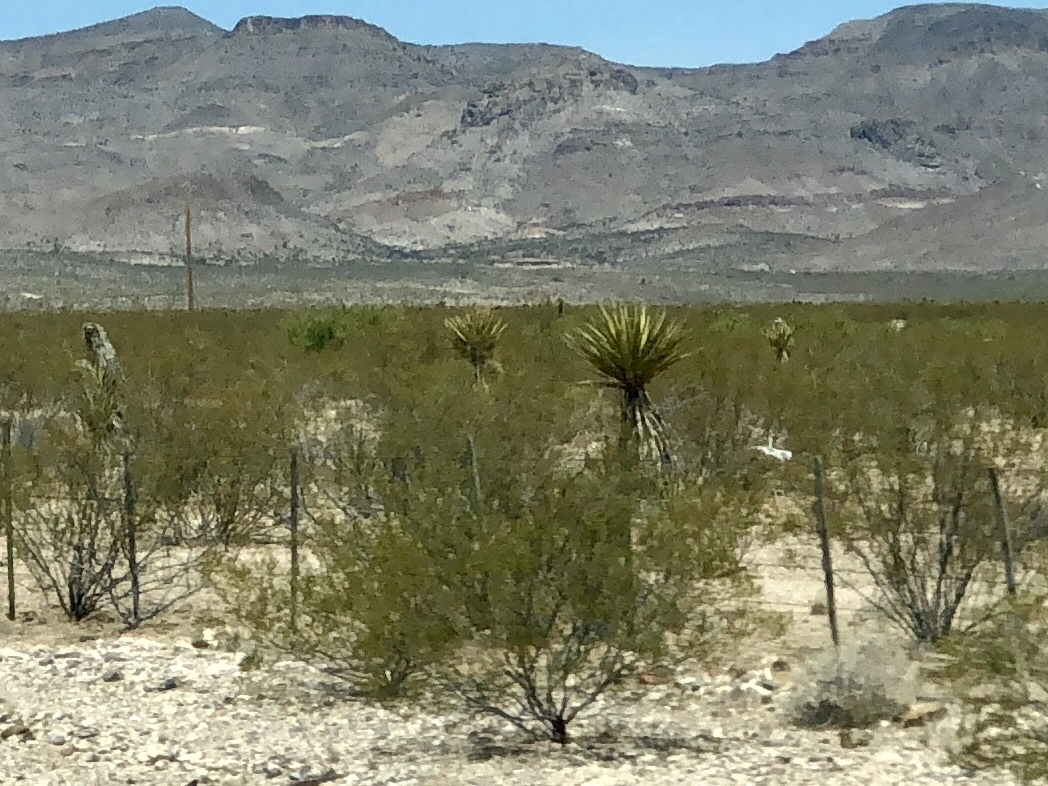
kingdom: Plantae
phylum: Tracheophyta
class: Magnoliopsida
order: Zygophyllales
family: Zygophyllaceae
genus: Larrea
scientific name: Larrea tridentata
